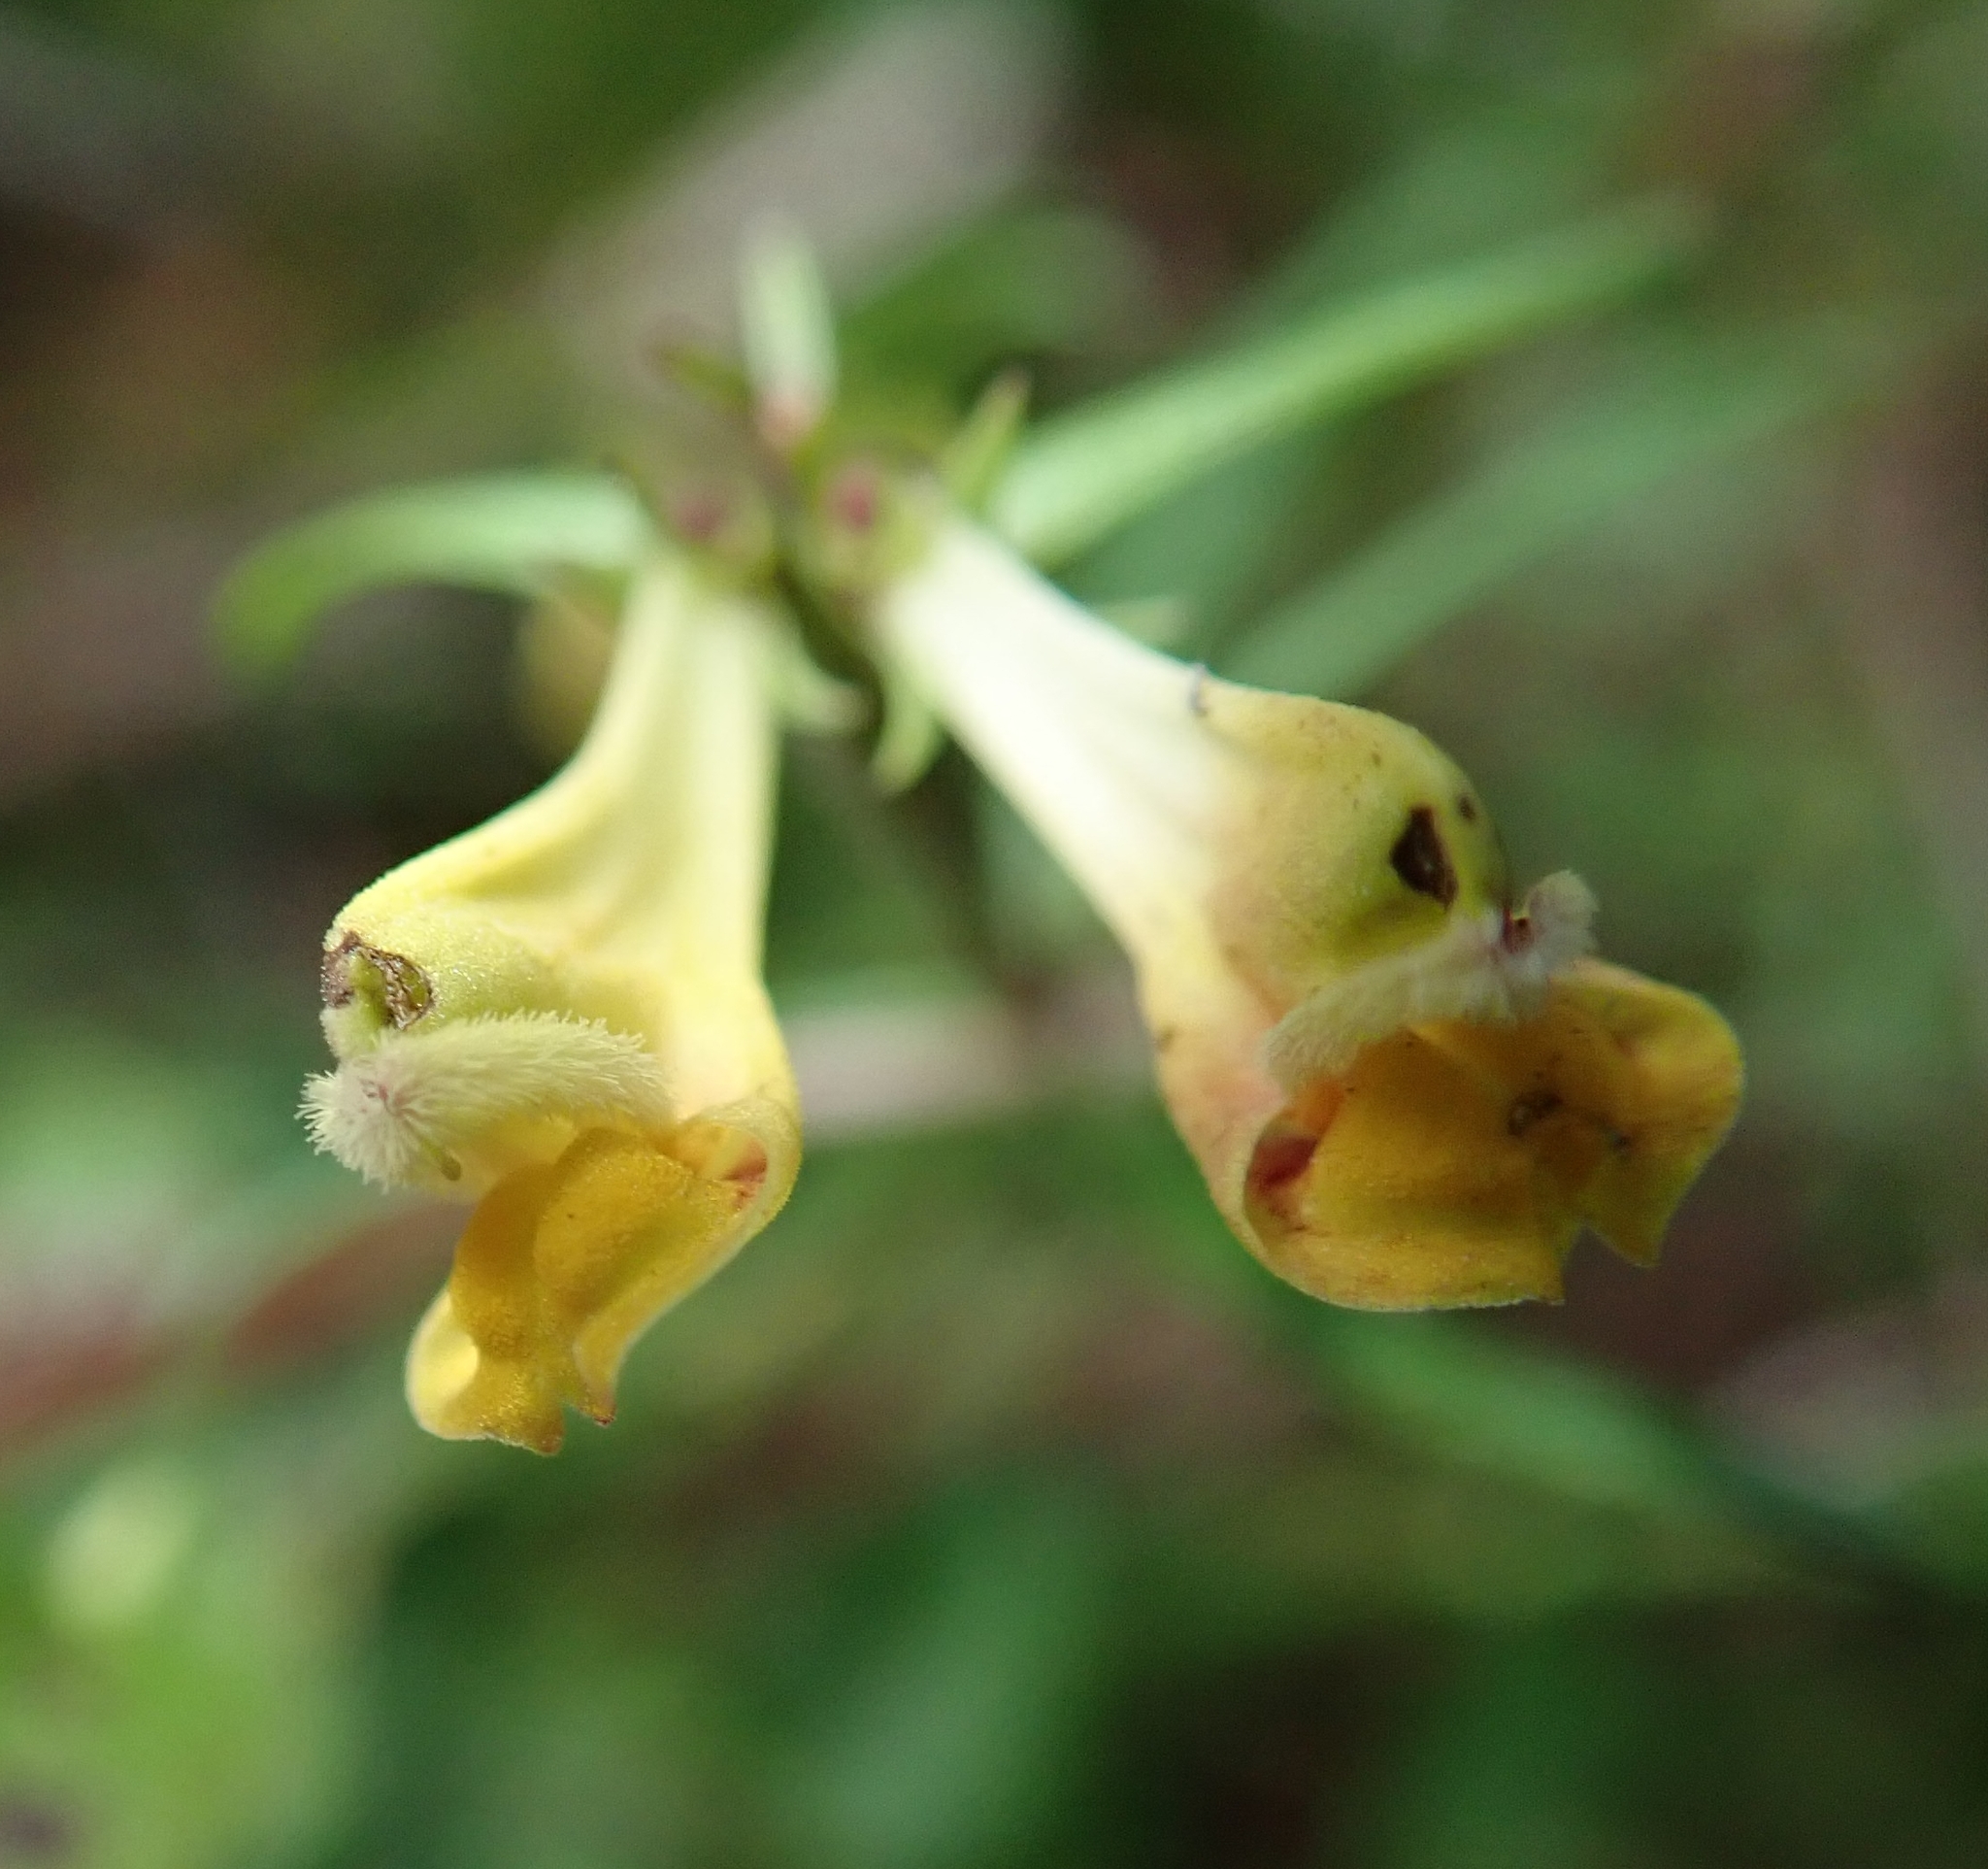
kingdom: Plantae
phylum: Tracheophyta
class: Magnoliopsida
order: Lamiales
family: Orobanchaceae
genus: Melampyrum
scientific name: Melampyrum pratense
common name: Common cow-wheat
